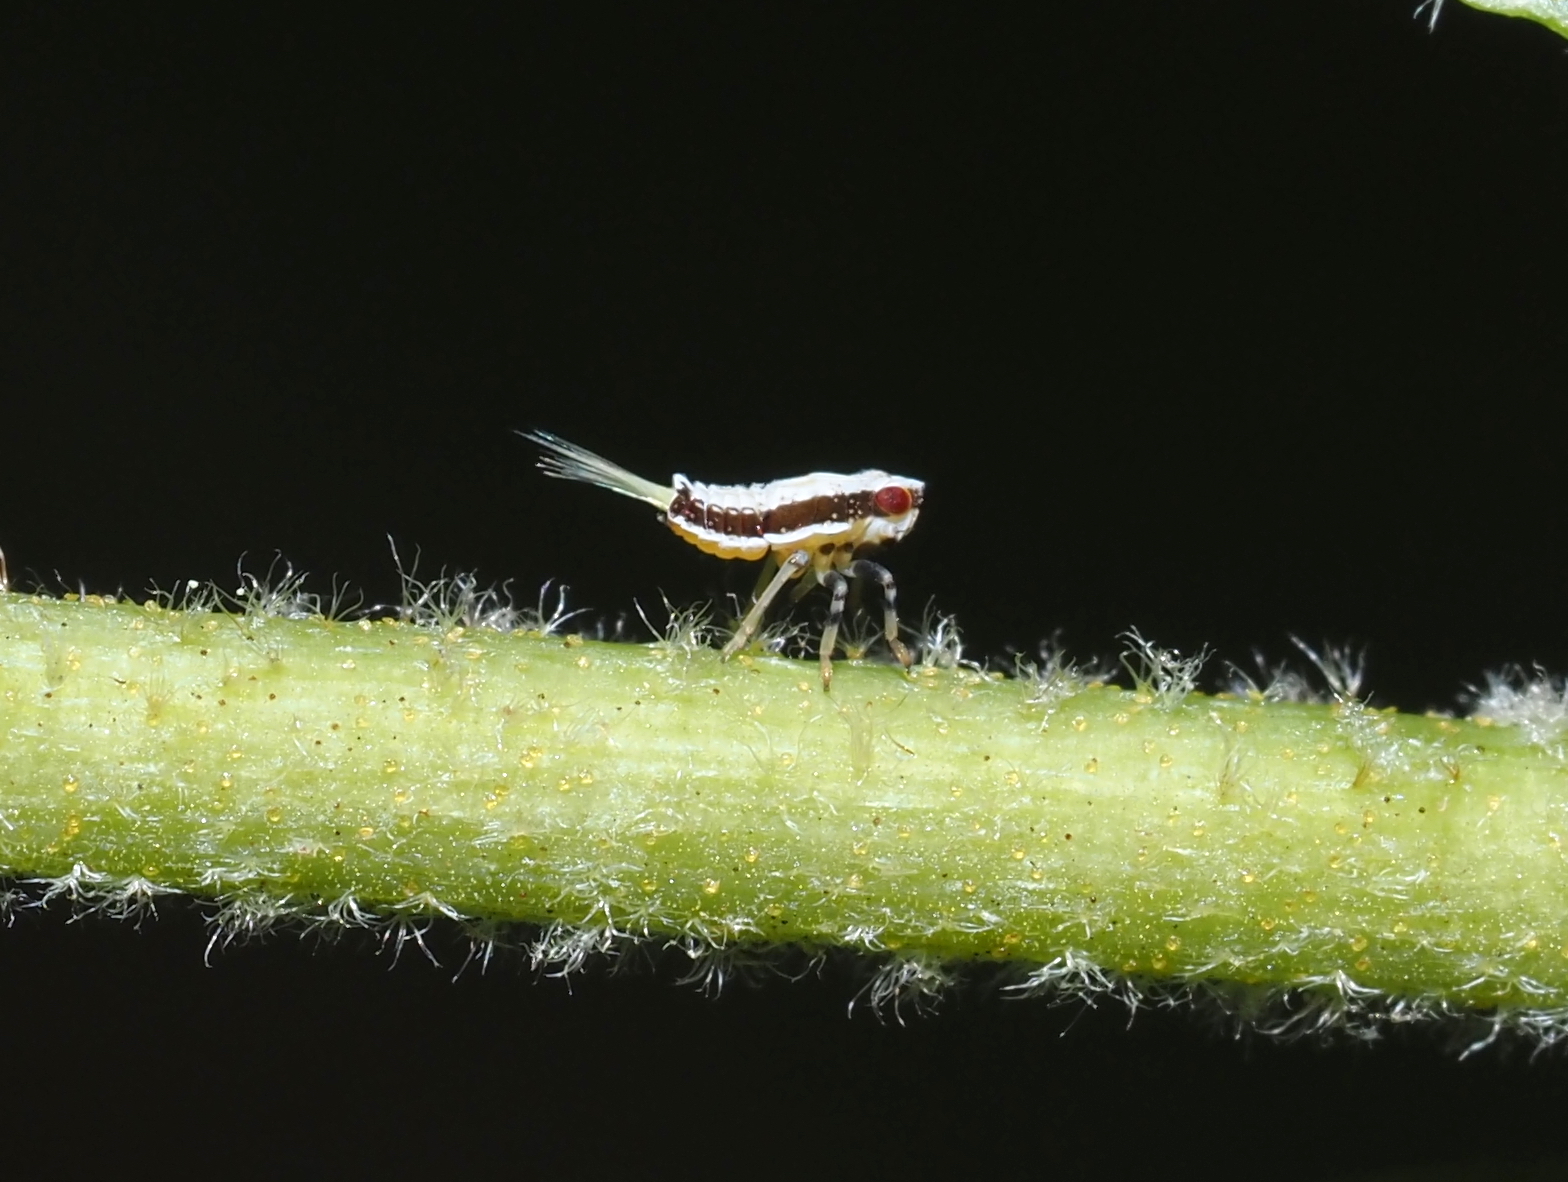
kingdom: Animalia
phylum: Arthropoda
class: Insecta
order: Hemiptera
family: Issidae
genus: Thionia
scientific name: Thionia bullata
